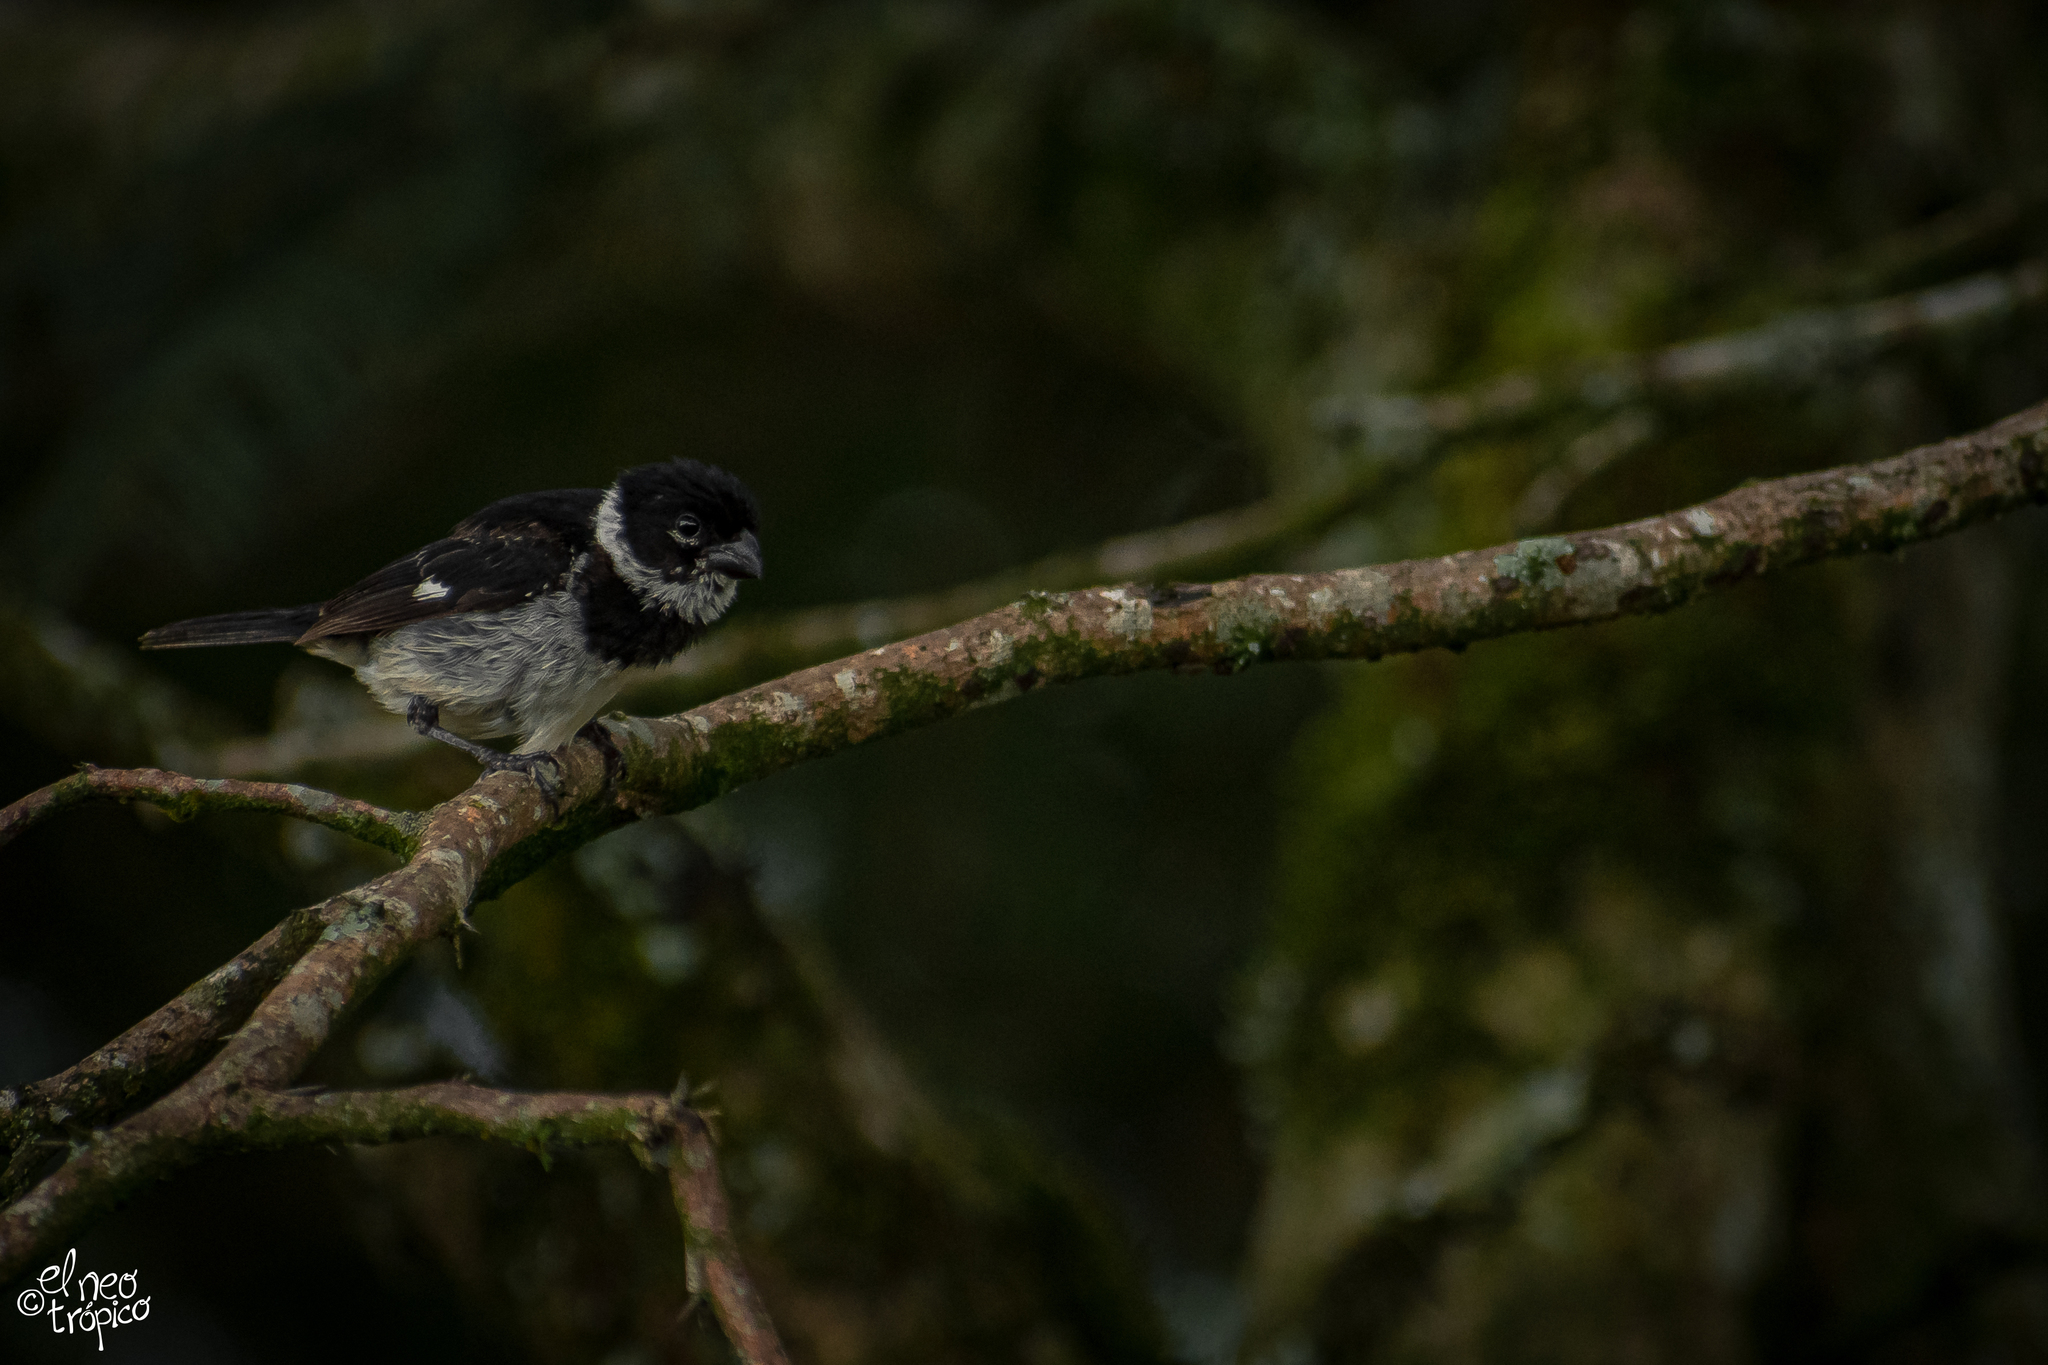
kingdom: Animalia
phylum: Chordata
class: Aves
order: Passeriformes
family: Thraupidae
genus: Sporophila
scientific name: Sporophila morelleti
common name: Morelet's seedeater
